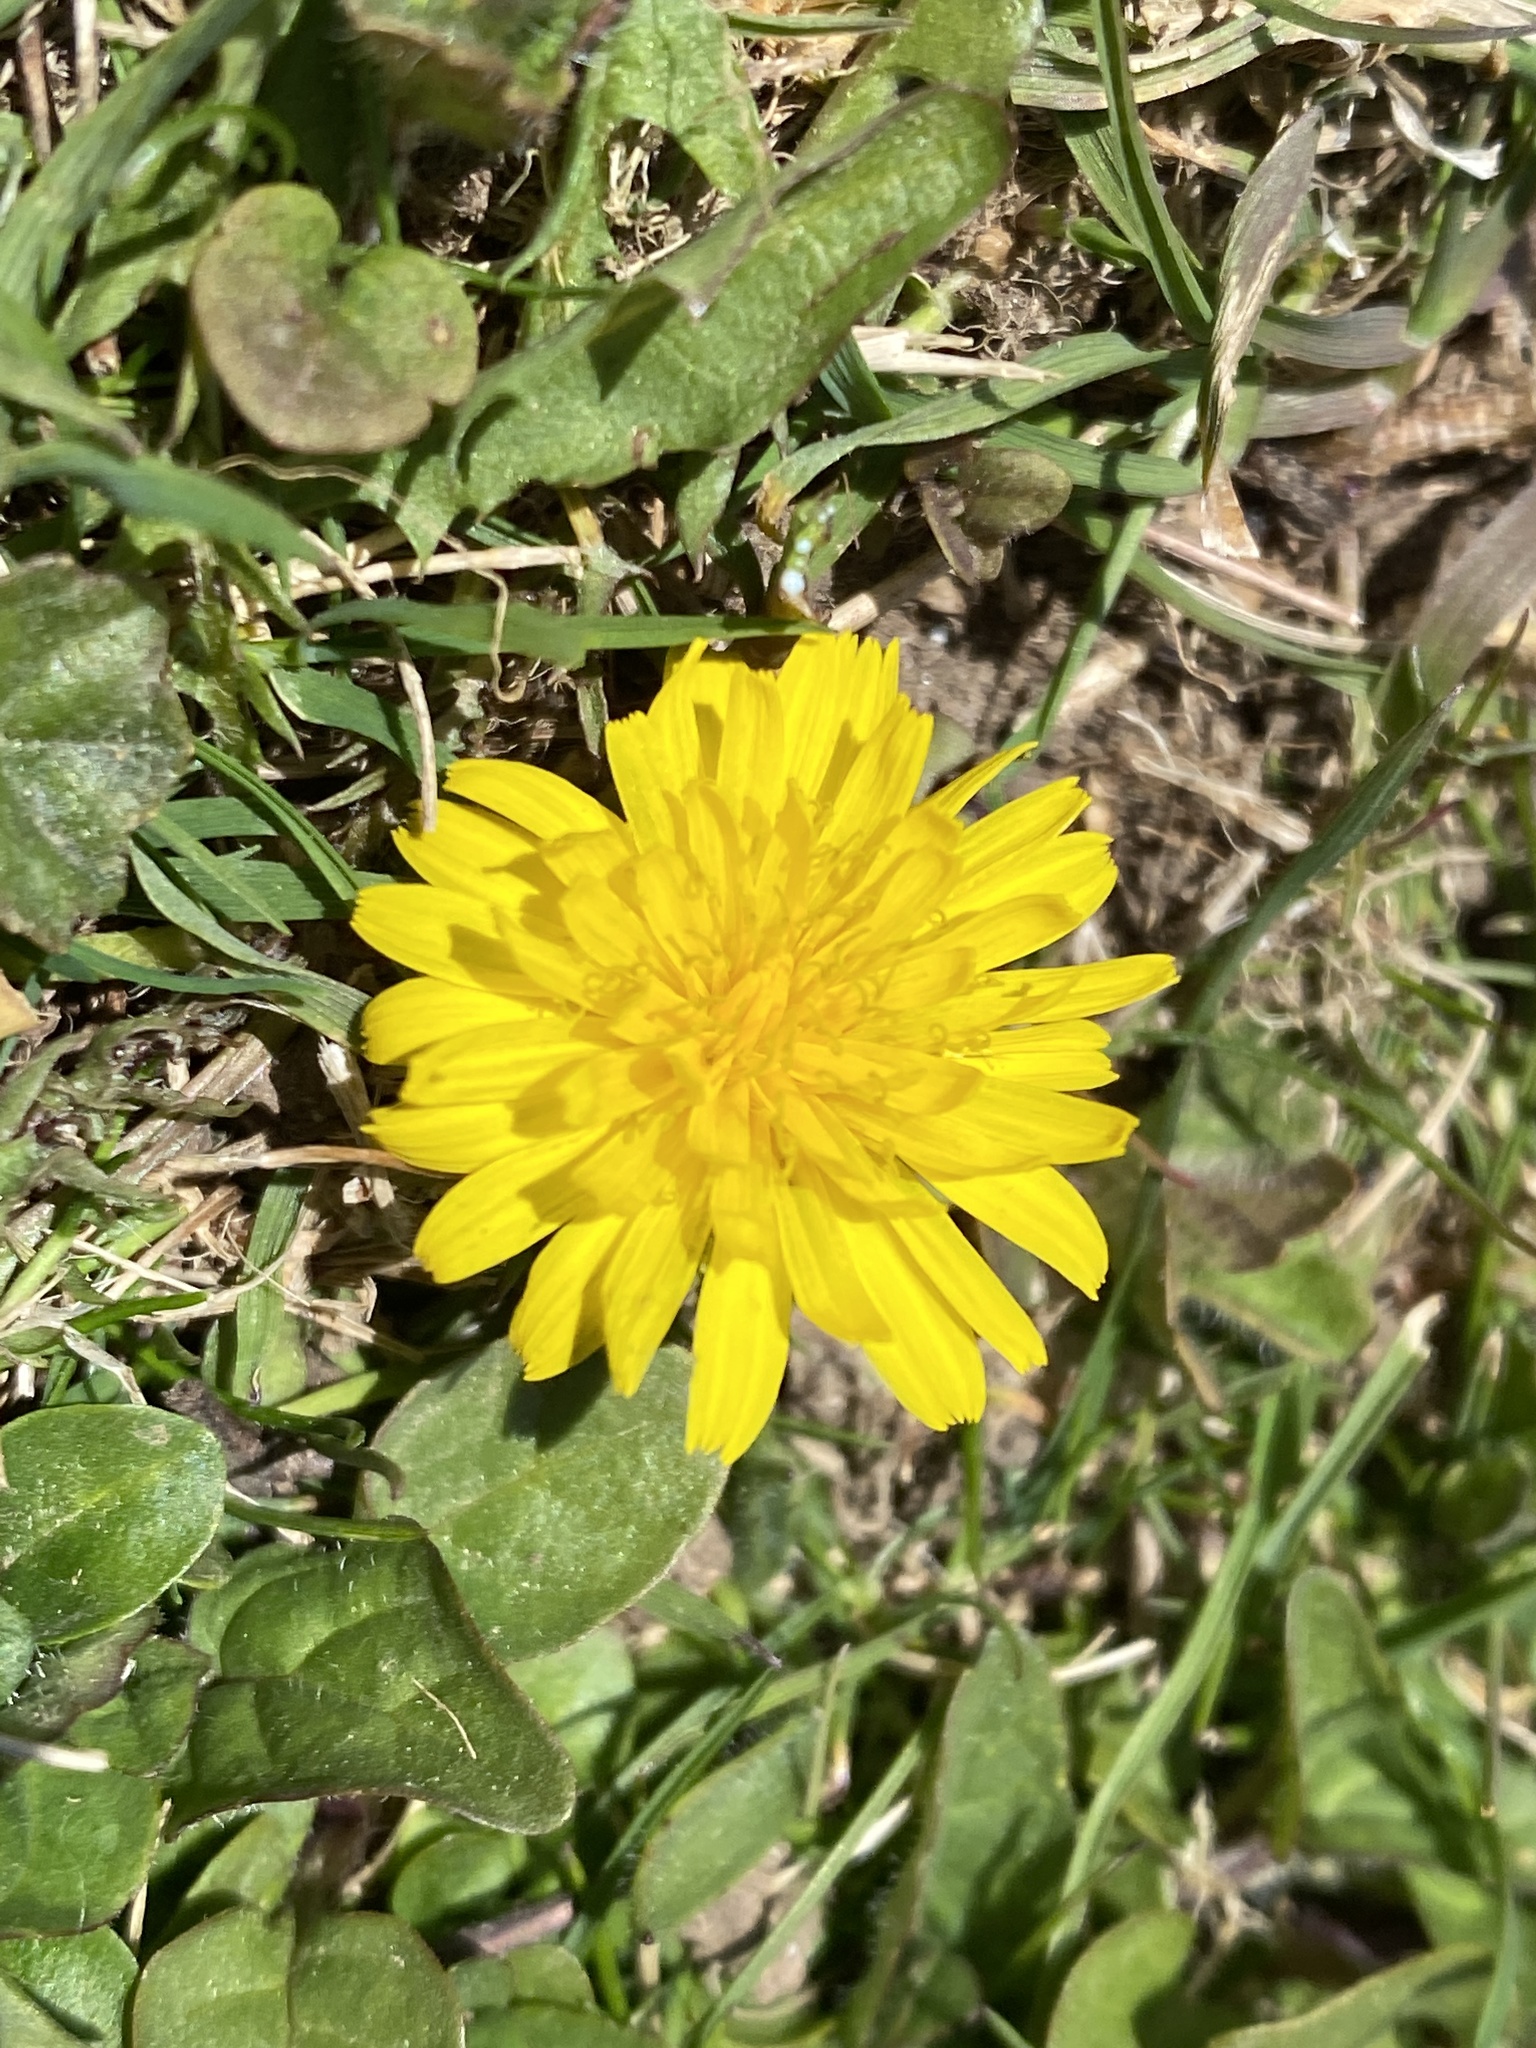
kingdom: Plantae
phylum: Tracheophyta
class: Magnoliopsida
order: Asterales
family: Asteraceae
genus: Hypochaeris
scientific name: Hypochaeris radicata
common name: Flatweed
